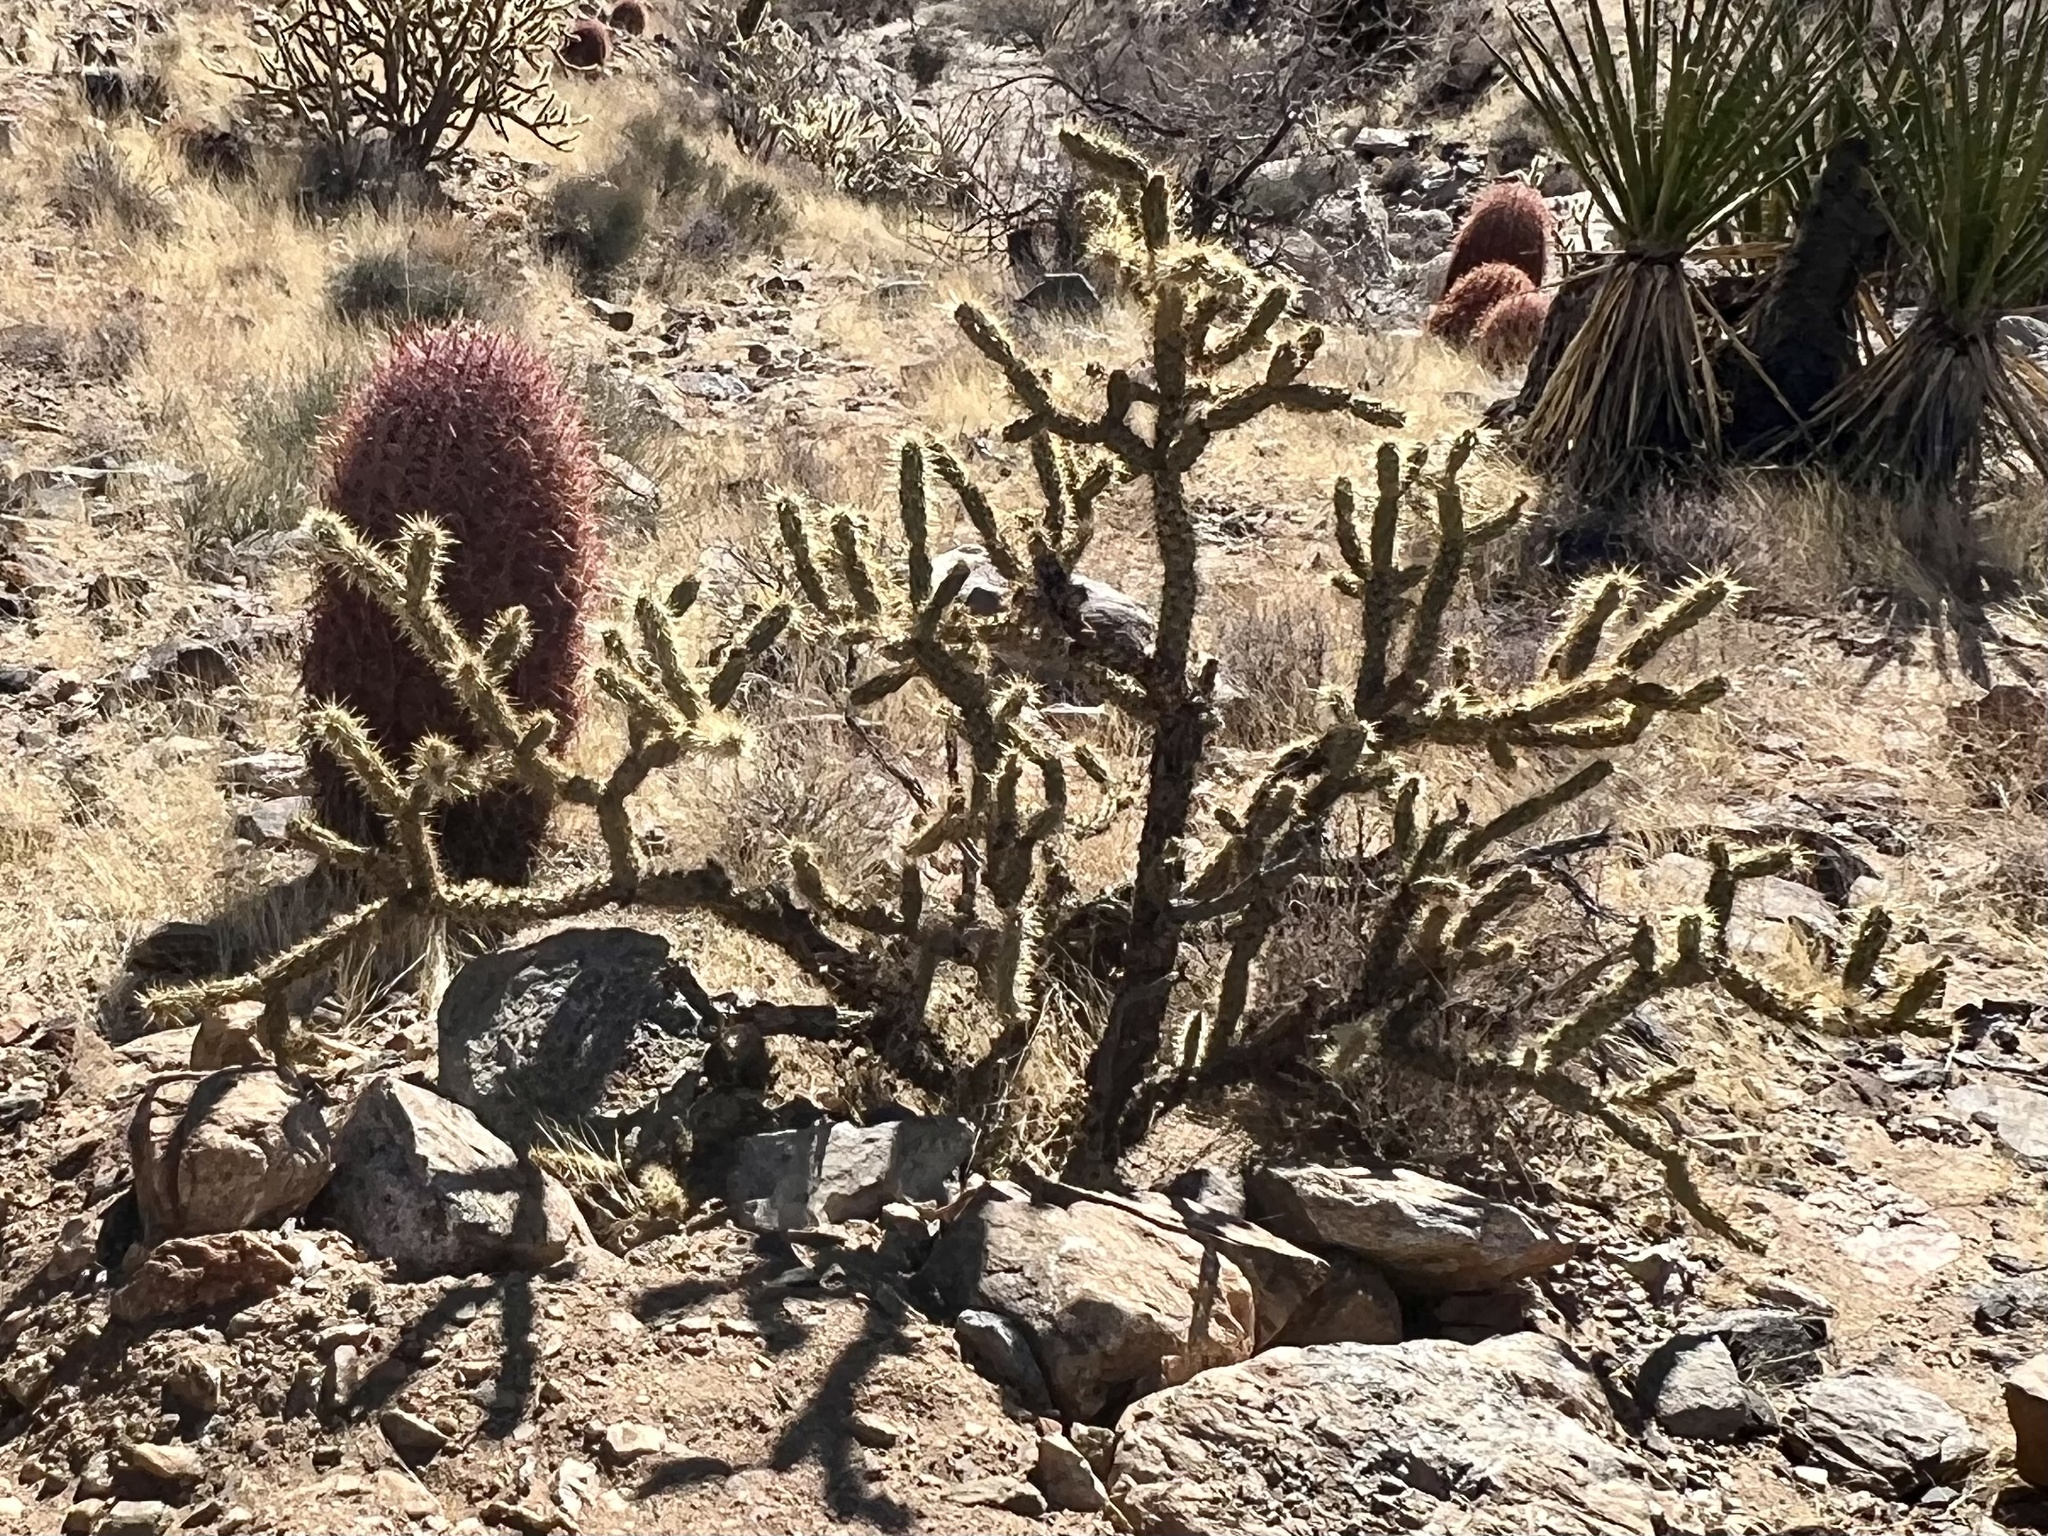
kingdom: Plantae
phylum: Tracheophyta
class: Magnoliopsida
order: Caryophyllales
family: Cactaceae
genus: Cylindropuntia
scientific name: Cylindropuntia acanthocarpa
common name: Buckhorn cholla
